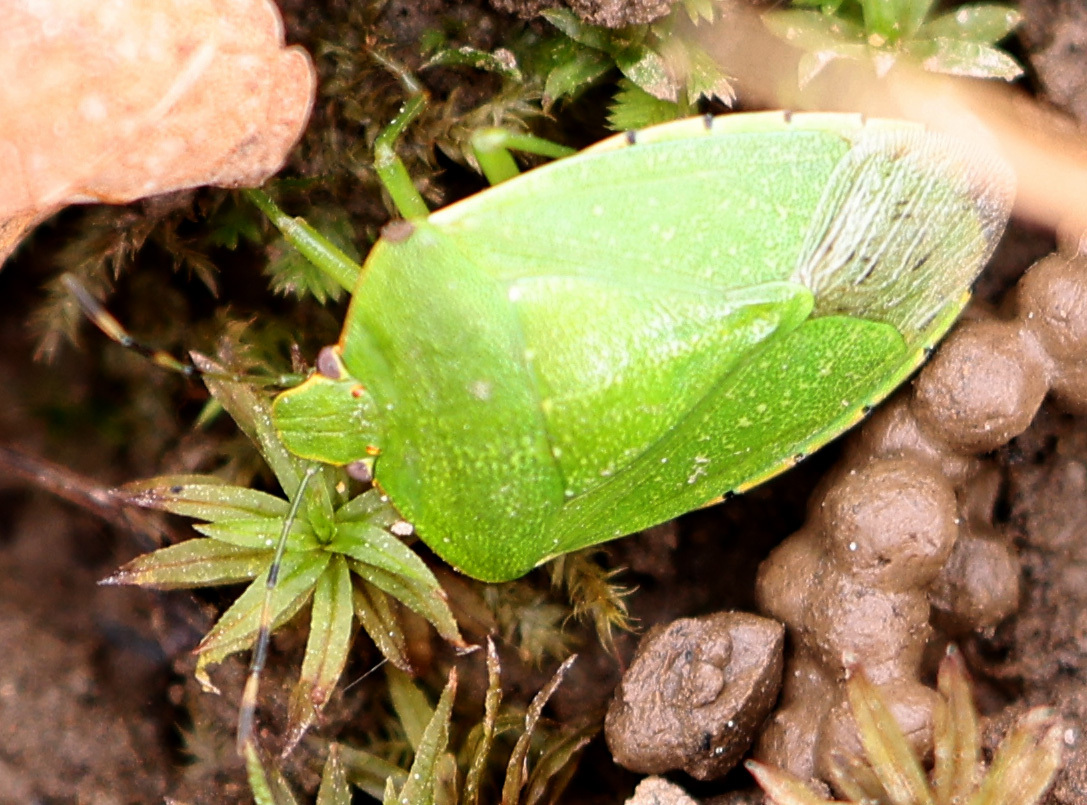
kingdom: Animalia
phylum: Arthropoda
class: Insecta
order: Hemiptera
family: Pentatomidae
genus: Chinavia
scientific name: Chinavia hilaris
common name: Green stink bug
